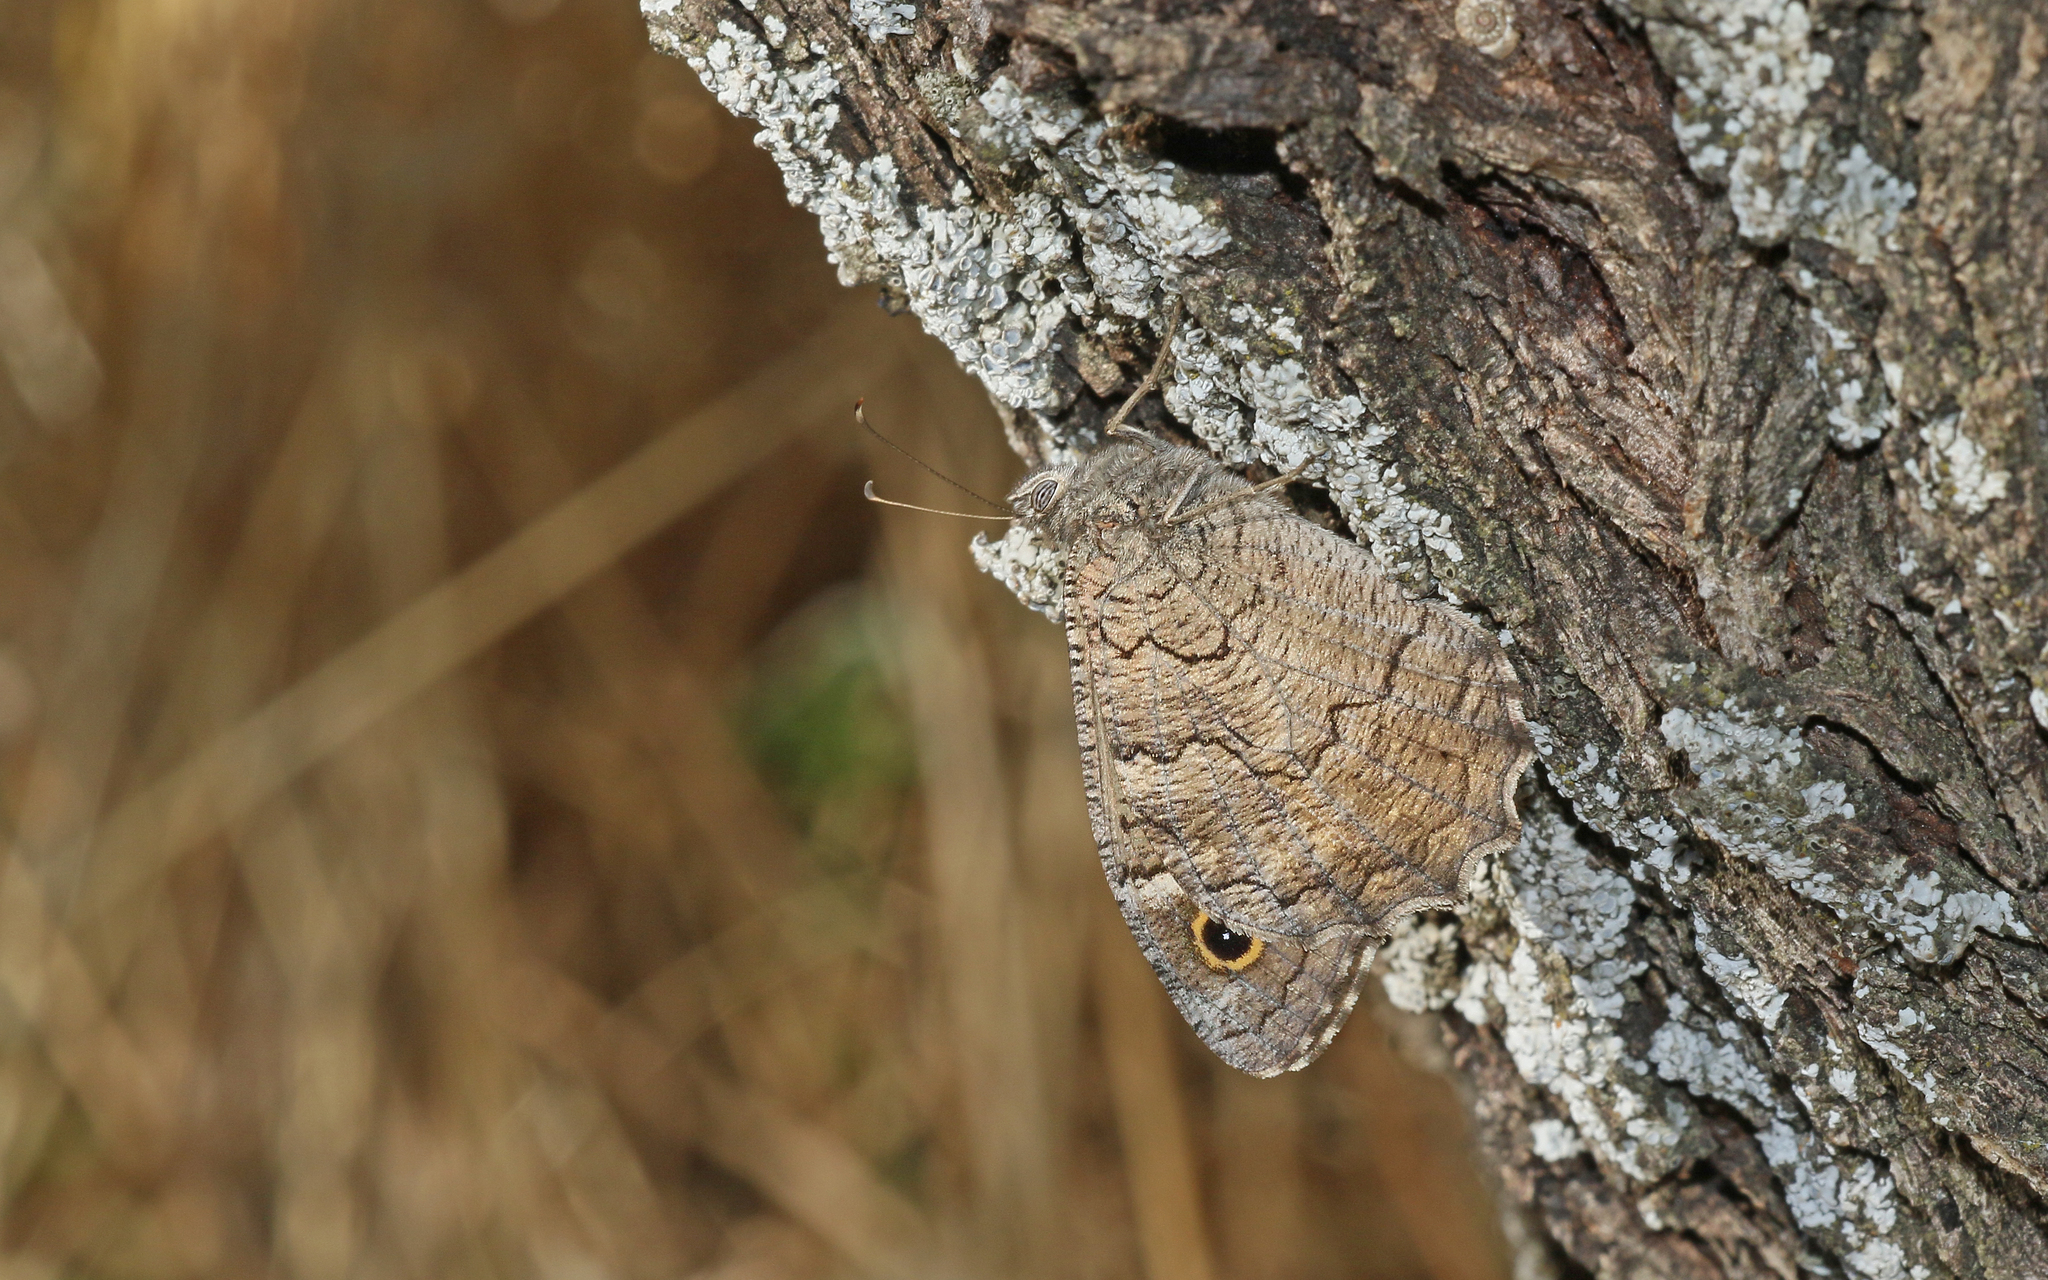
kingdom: Animalia
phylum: Arthropoda
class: Insecta
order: Lepidoptera
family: Nymphalidae
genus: Hipparchia
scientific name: Hipparchia fatua
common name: Freyer's grayling
